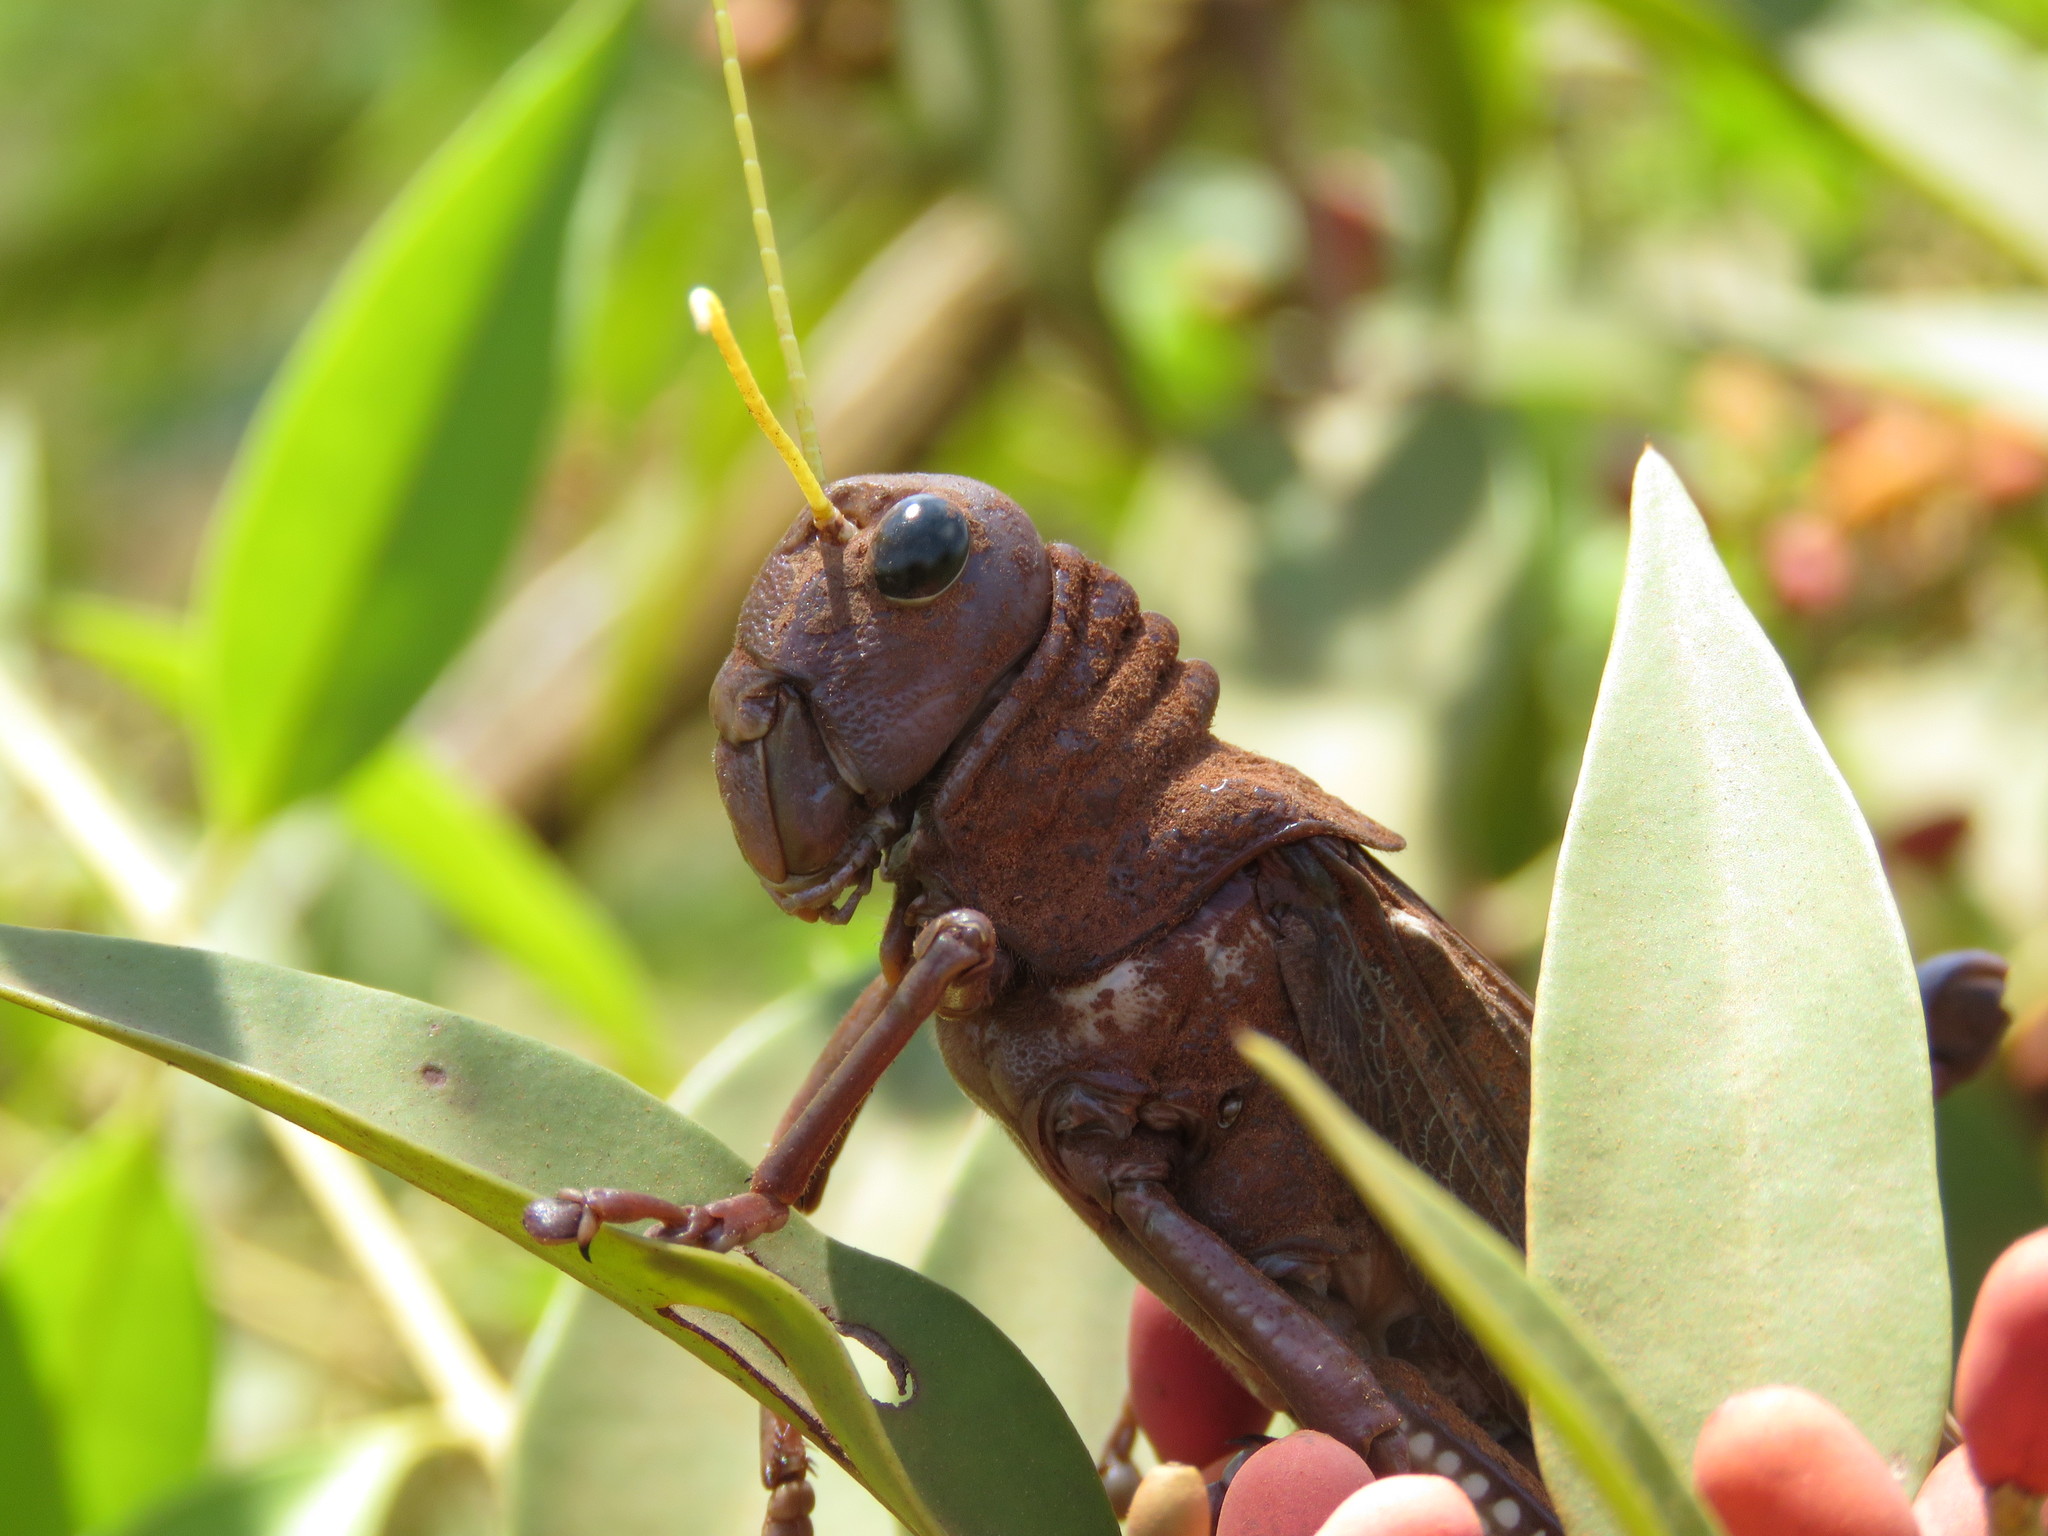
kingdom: Animalia
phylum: Arthropoda
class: Insecta
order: Orthoptera
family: Romaleidae
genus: Tropidacris
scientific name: Tropidacris collaris
